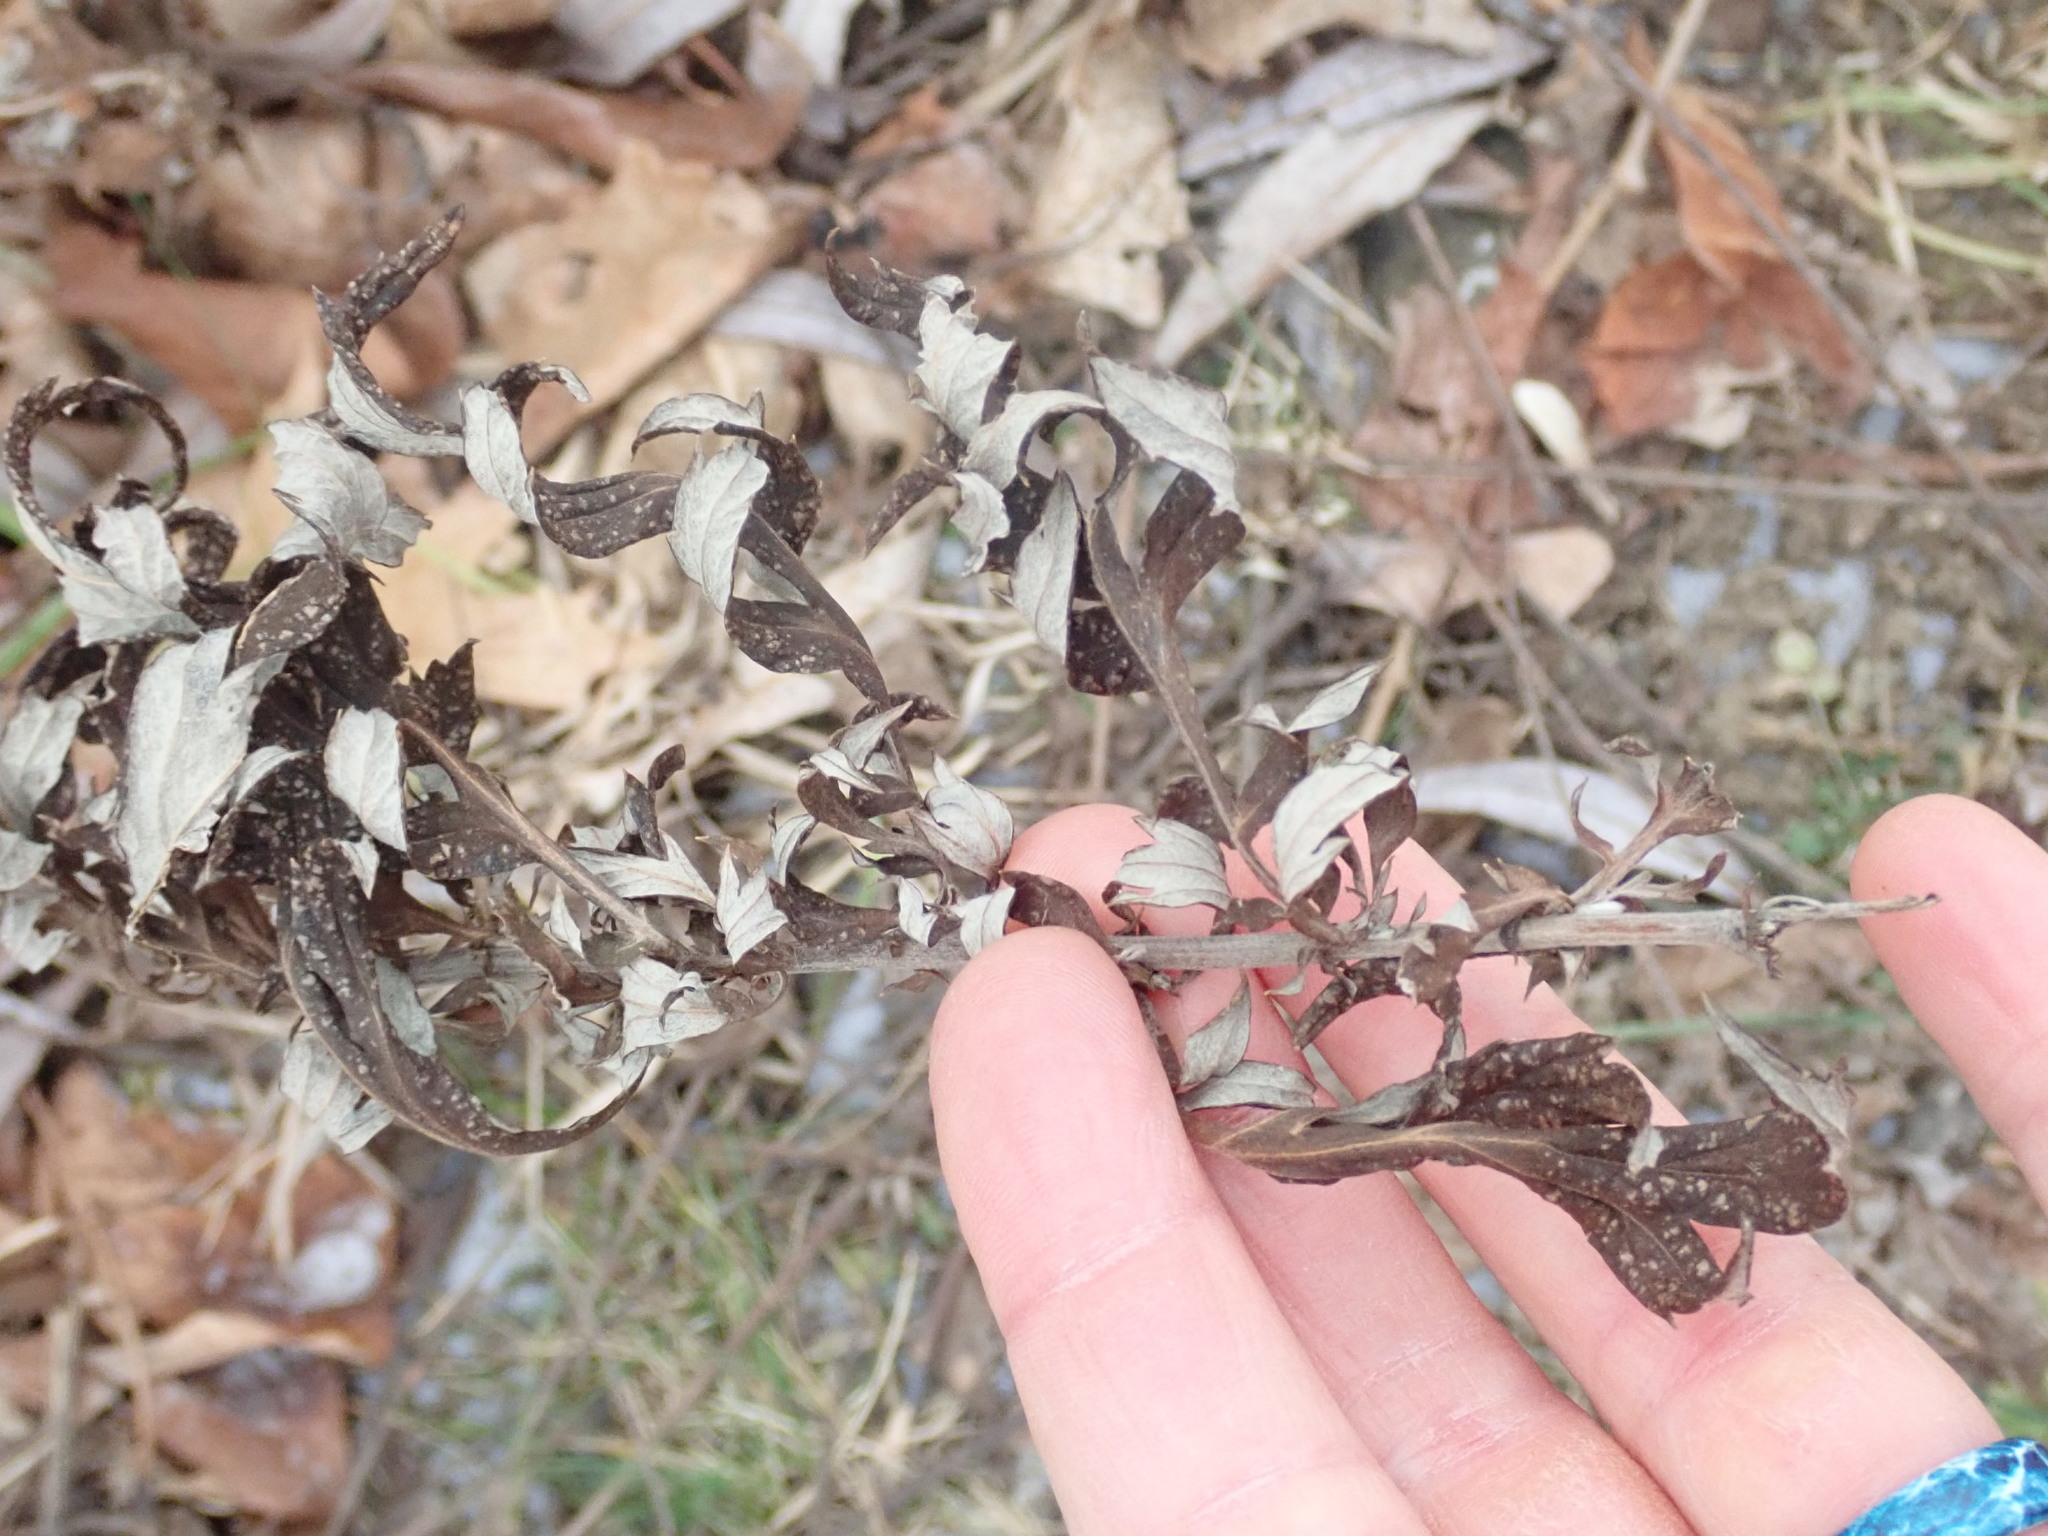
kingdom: Plantae
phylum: Tracheophyta
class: Magnoliopsida
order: Asterales
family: Asteraceae
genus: Artemisia
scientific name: Artemisia vulgaris
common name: Mugwort
